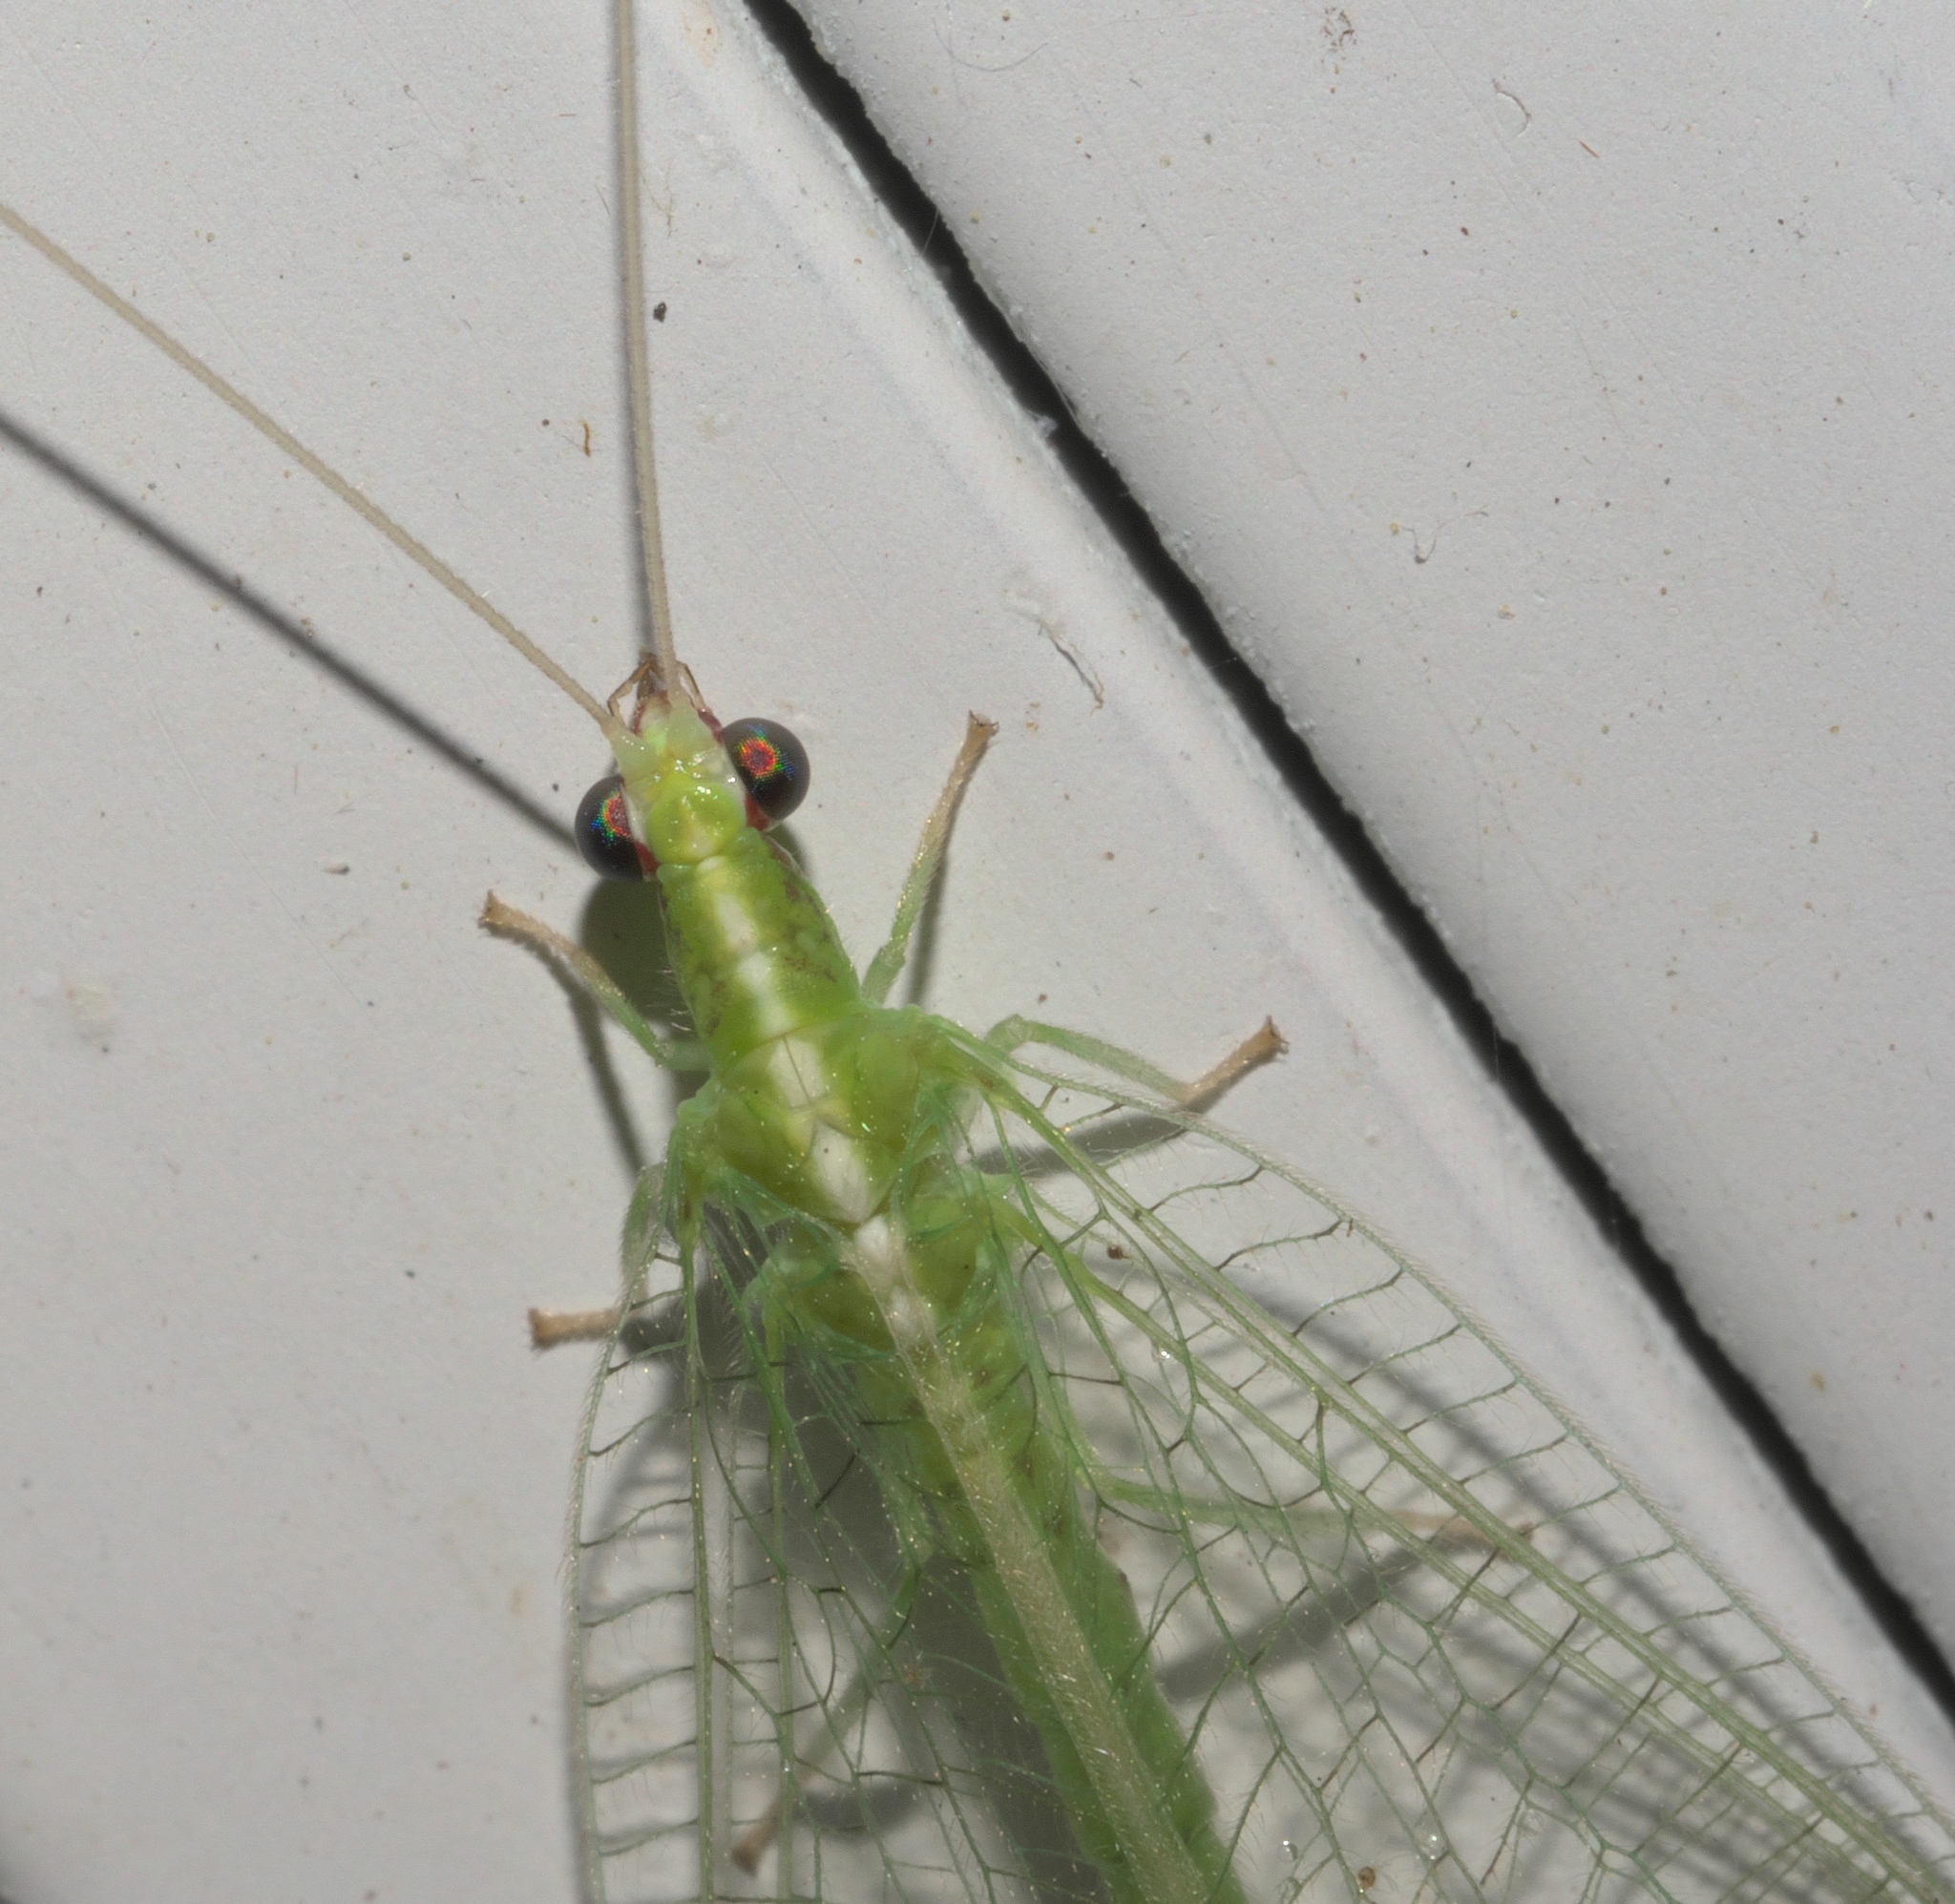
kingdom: Animalia
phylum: Arthropoda
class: Insecta
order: Neuroptera
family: Chrysopidae
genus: Chrysoperla
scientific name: Chrysoperla rufilabris
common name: Red-lipped green lacewing
